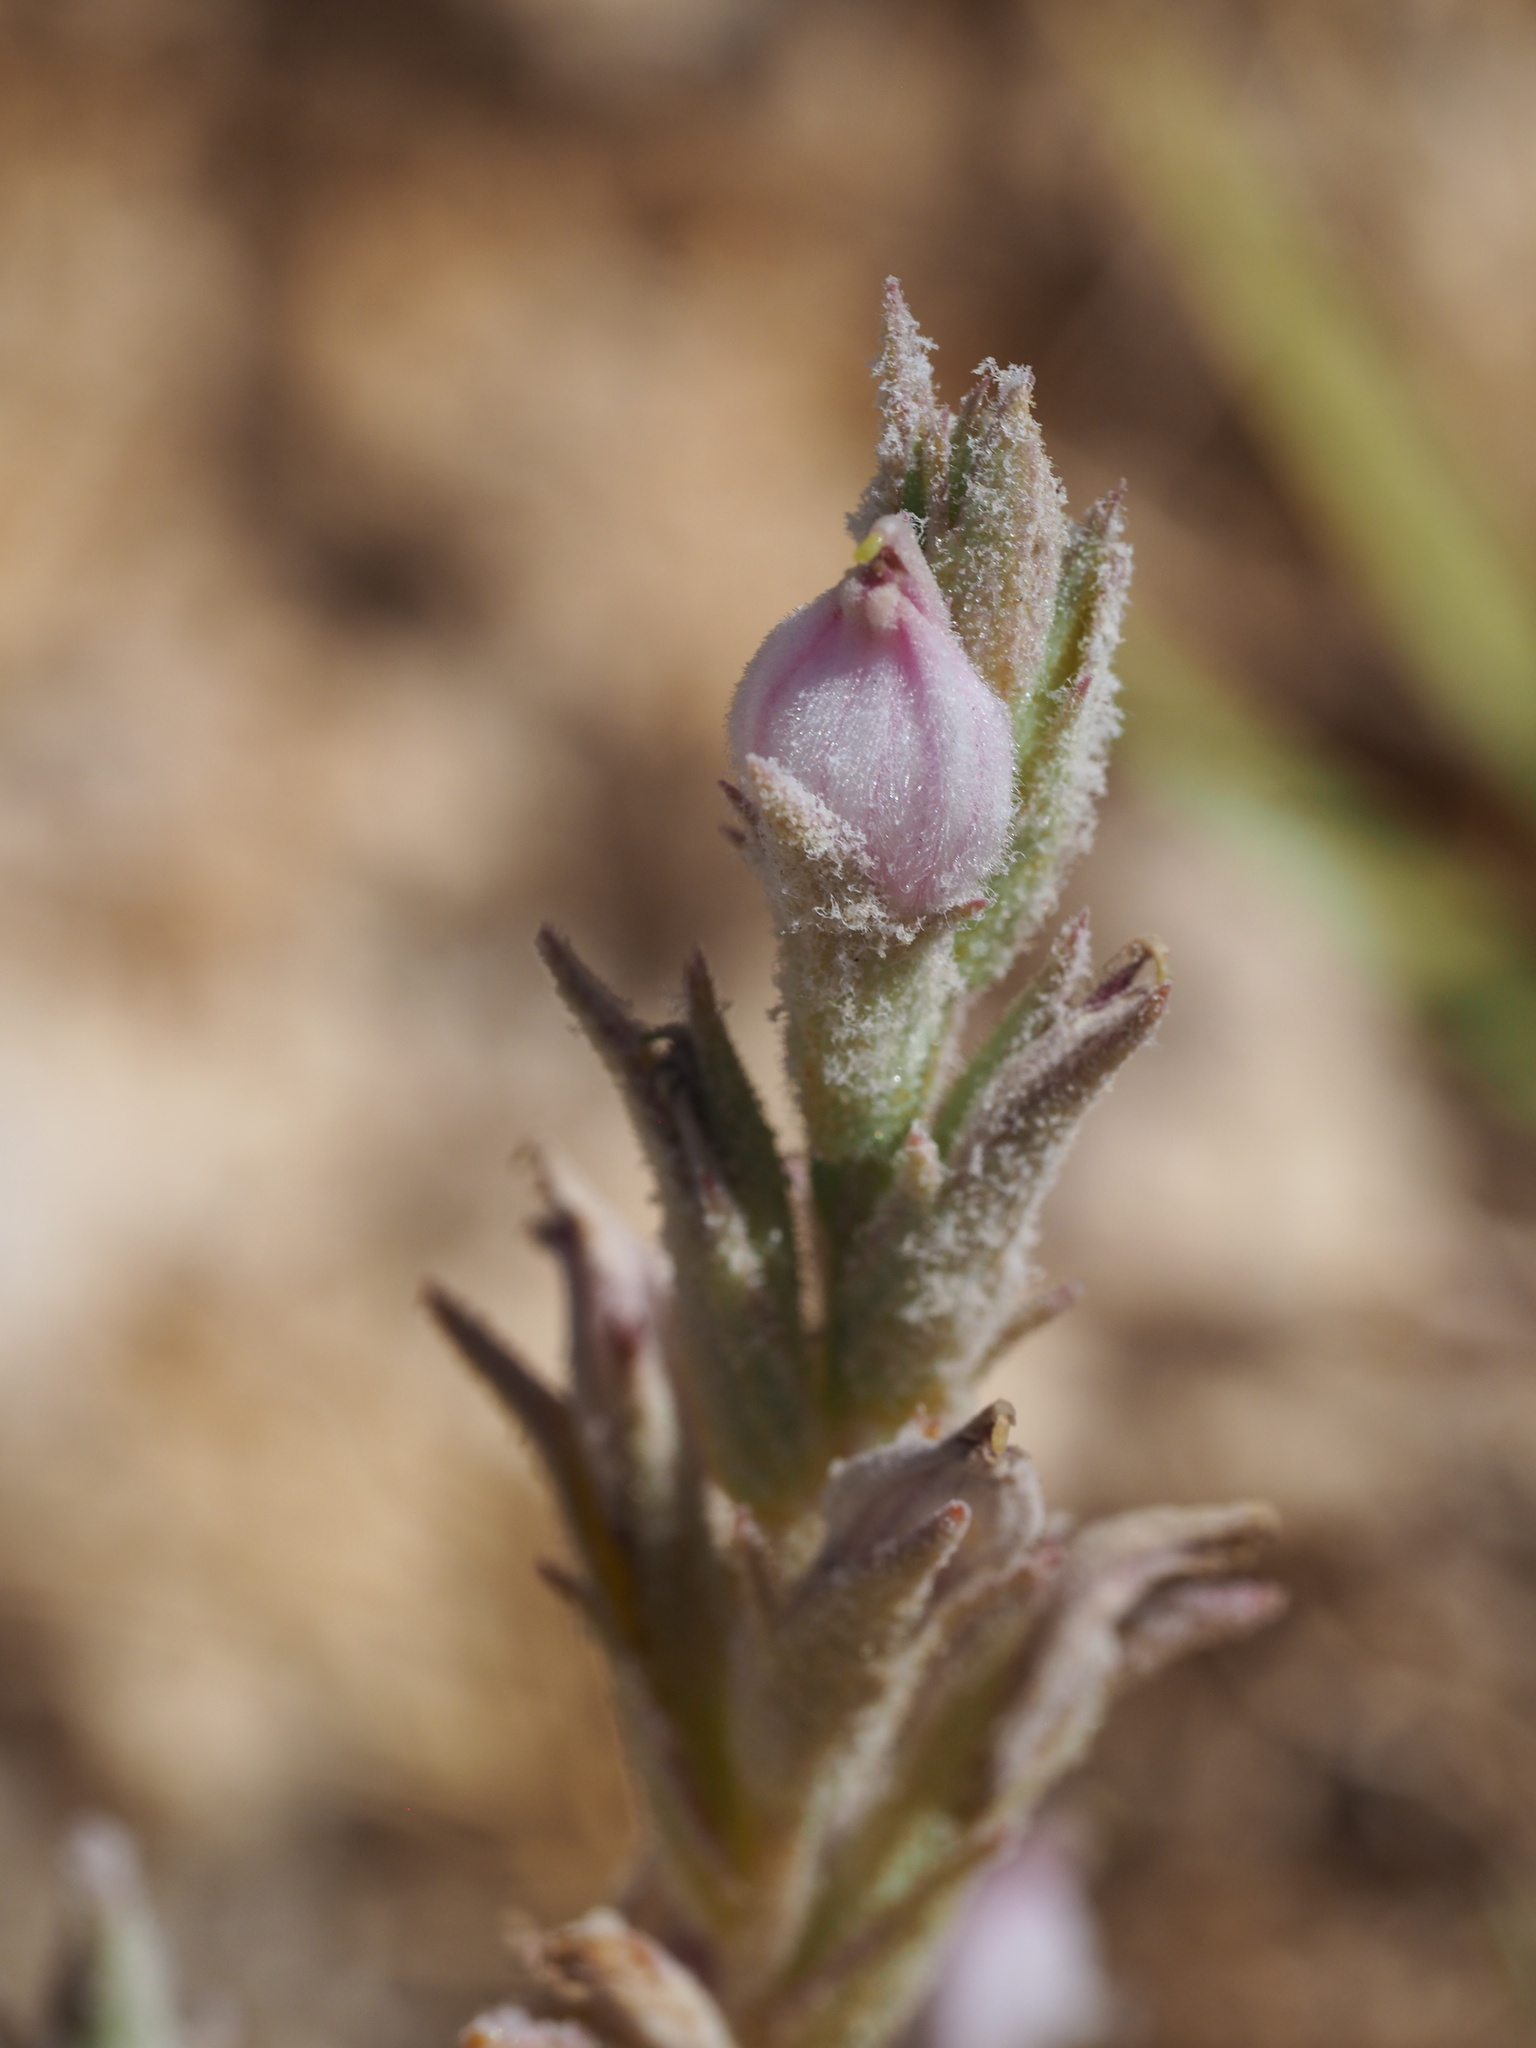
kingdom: Plantae
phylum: Tracheophyta
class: Magnoliopsida
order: Lamiales
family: Orobanchaceae
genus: Chloropyron
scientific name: Chloropyron tecopense
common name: Tecopa salty bird's-beak
